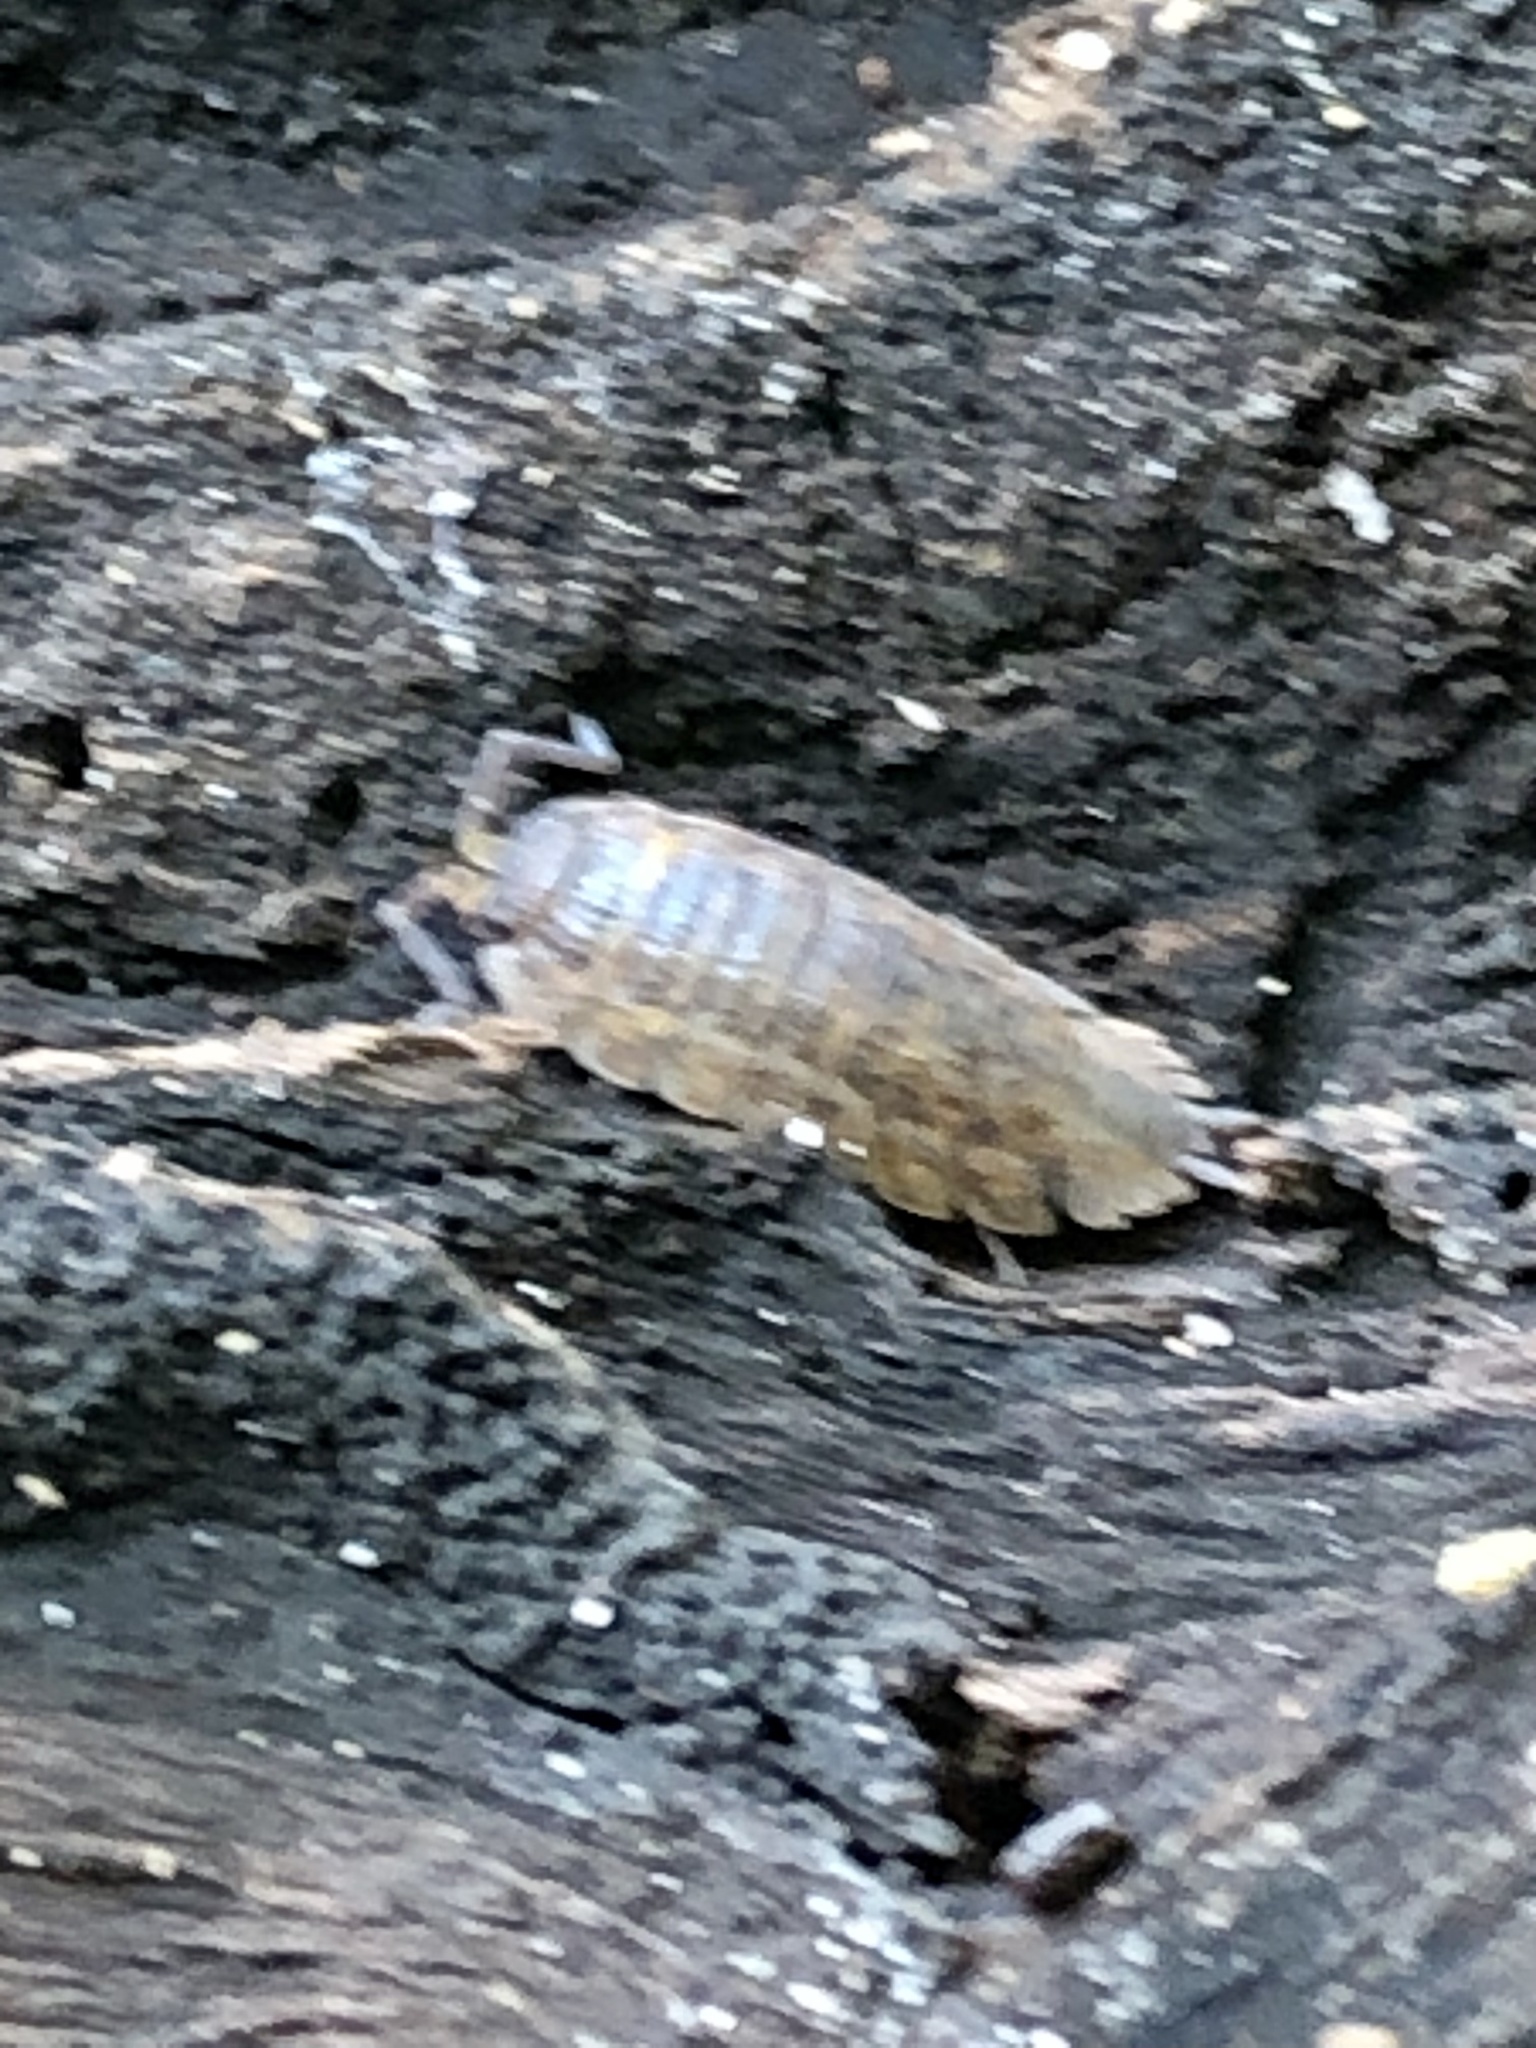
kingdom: Animalia
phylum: Arthropoda
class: Malacostraca
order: Isopoda
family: Trachelipodidae
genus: Trachelipus
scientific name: Trachelipus rathkii
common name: Isopod
